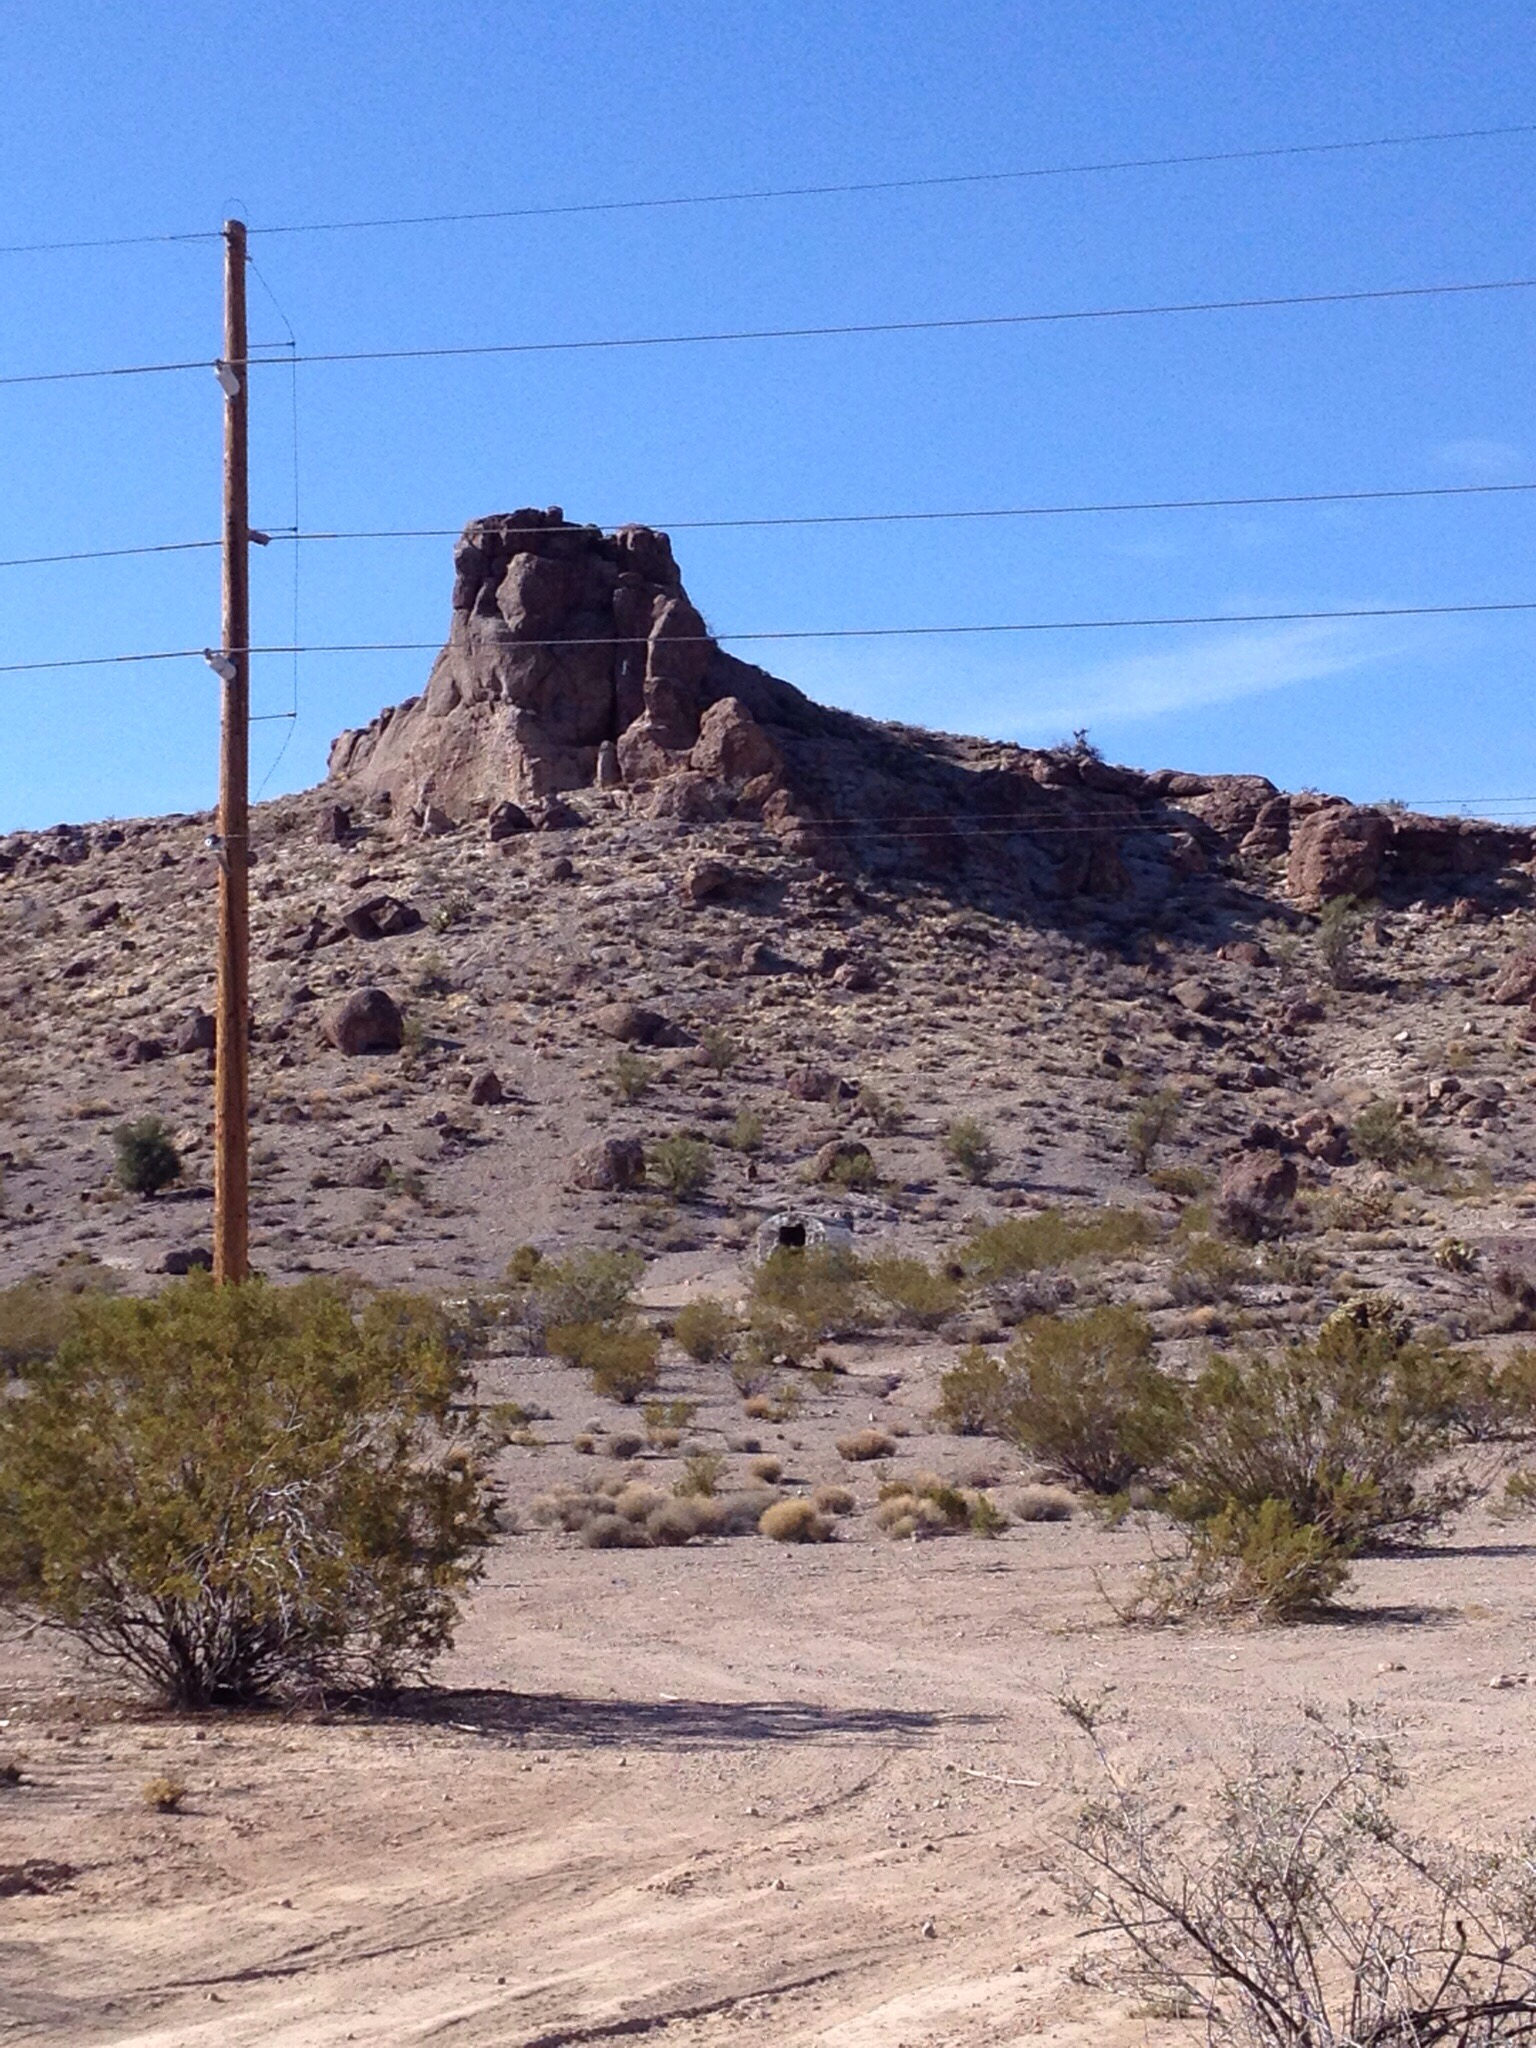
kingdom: Plantae
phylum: Tracheophyta
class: Magnoliopsida
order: Zygophyllales
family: Zygophyllaceae
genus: Larrea
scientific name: Larrea tridentata
